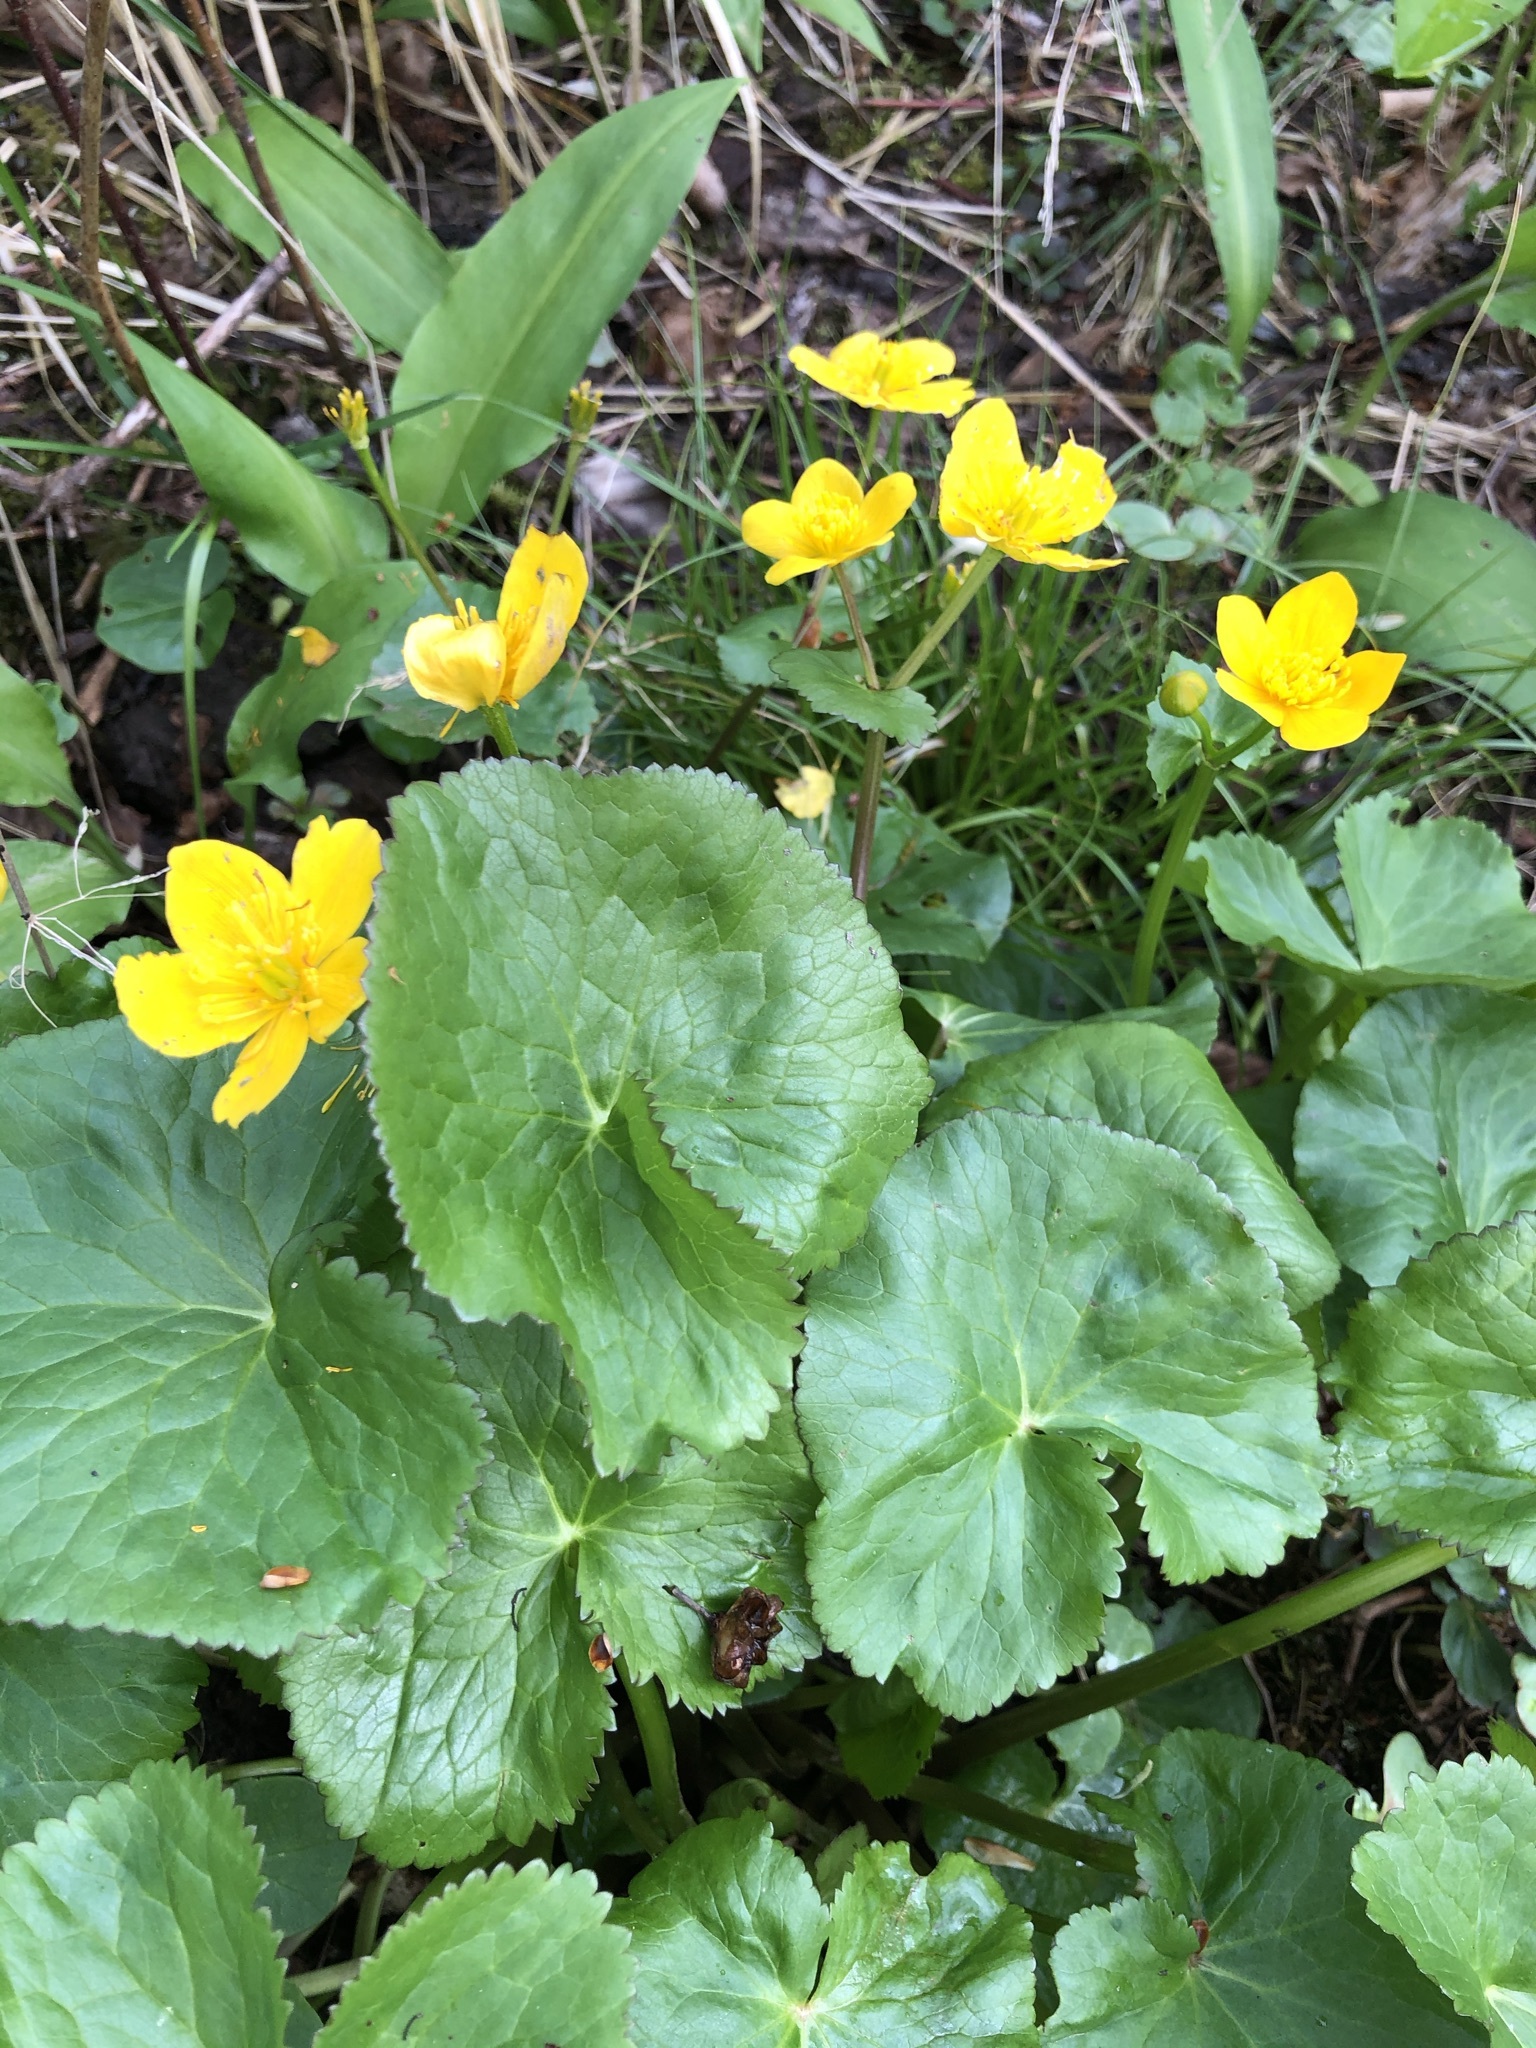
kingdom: Plantae
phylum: Tracheophyta
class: Magnoliopsida
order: Ranunculales
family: Ranunculaceae
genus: Caltha
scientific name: Caltha palustris
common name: Marsh marigold
